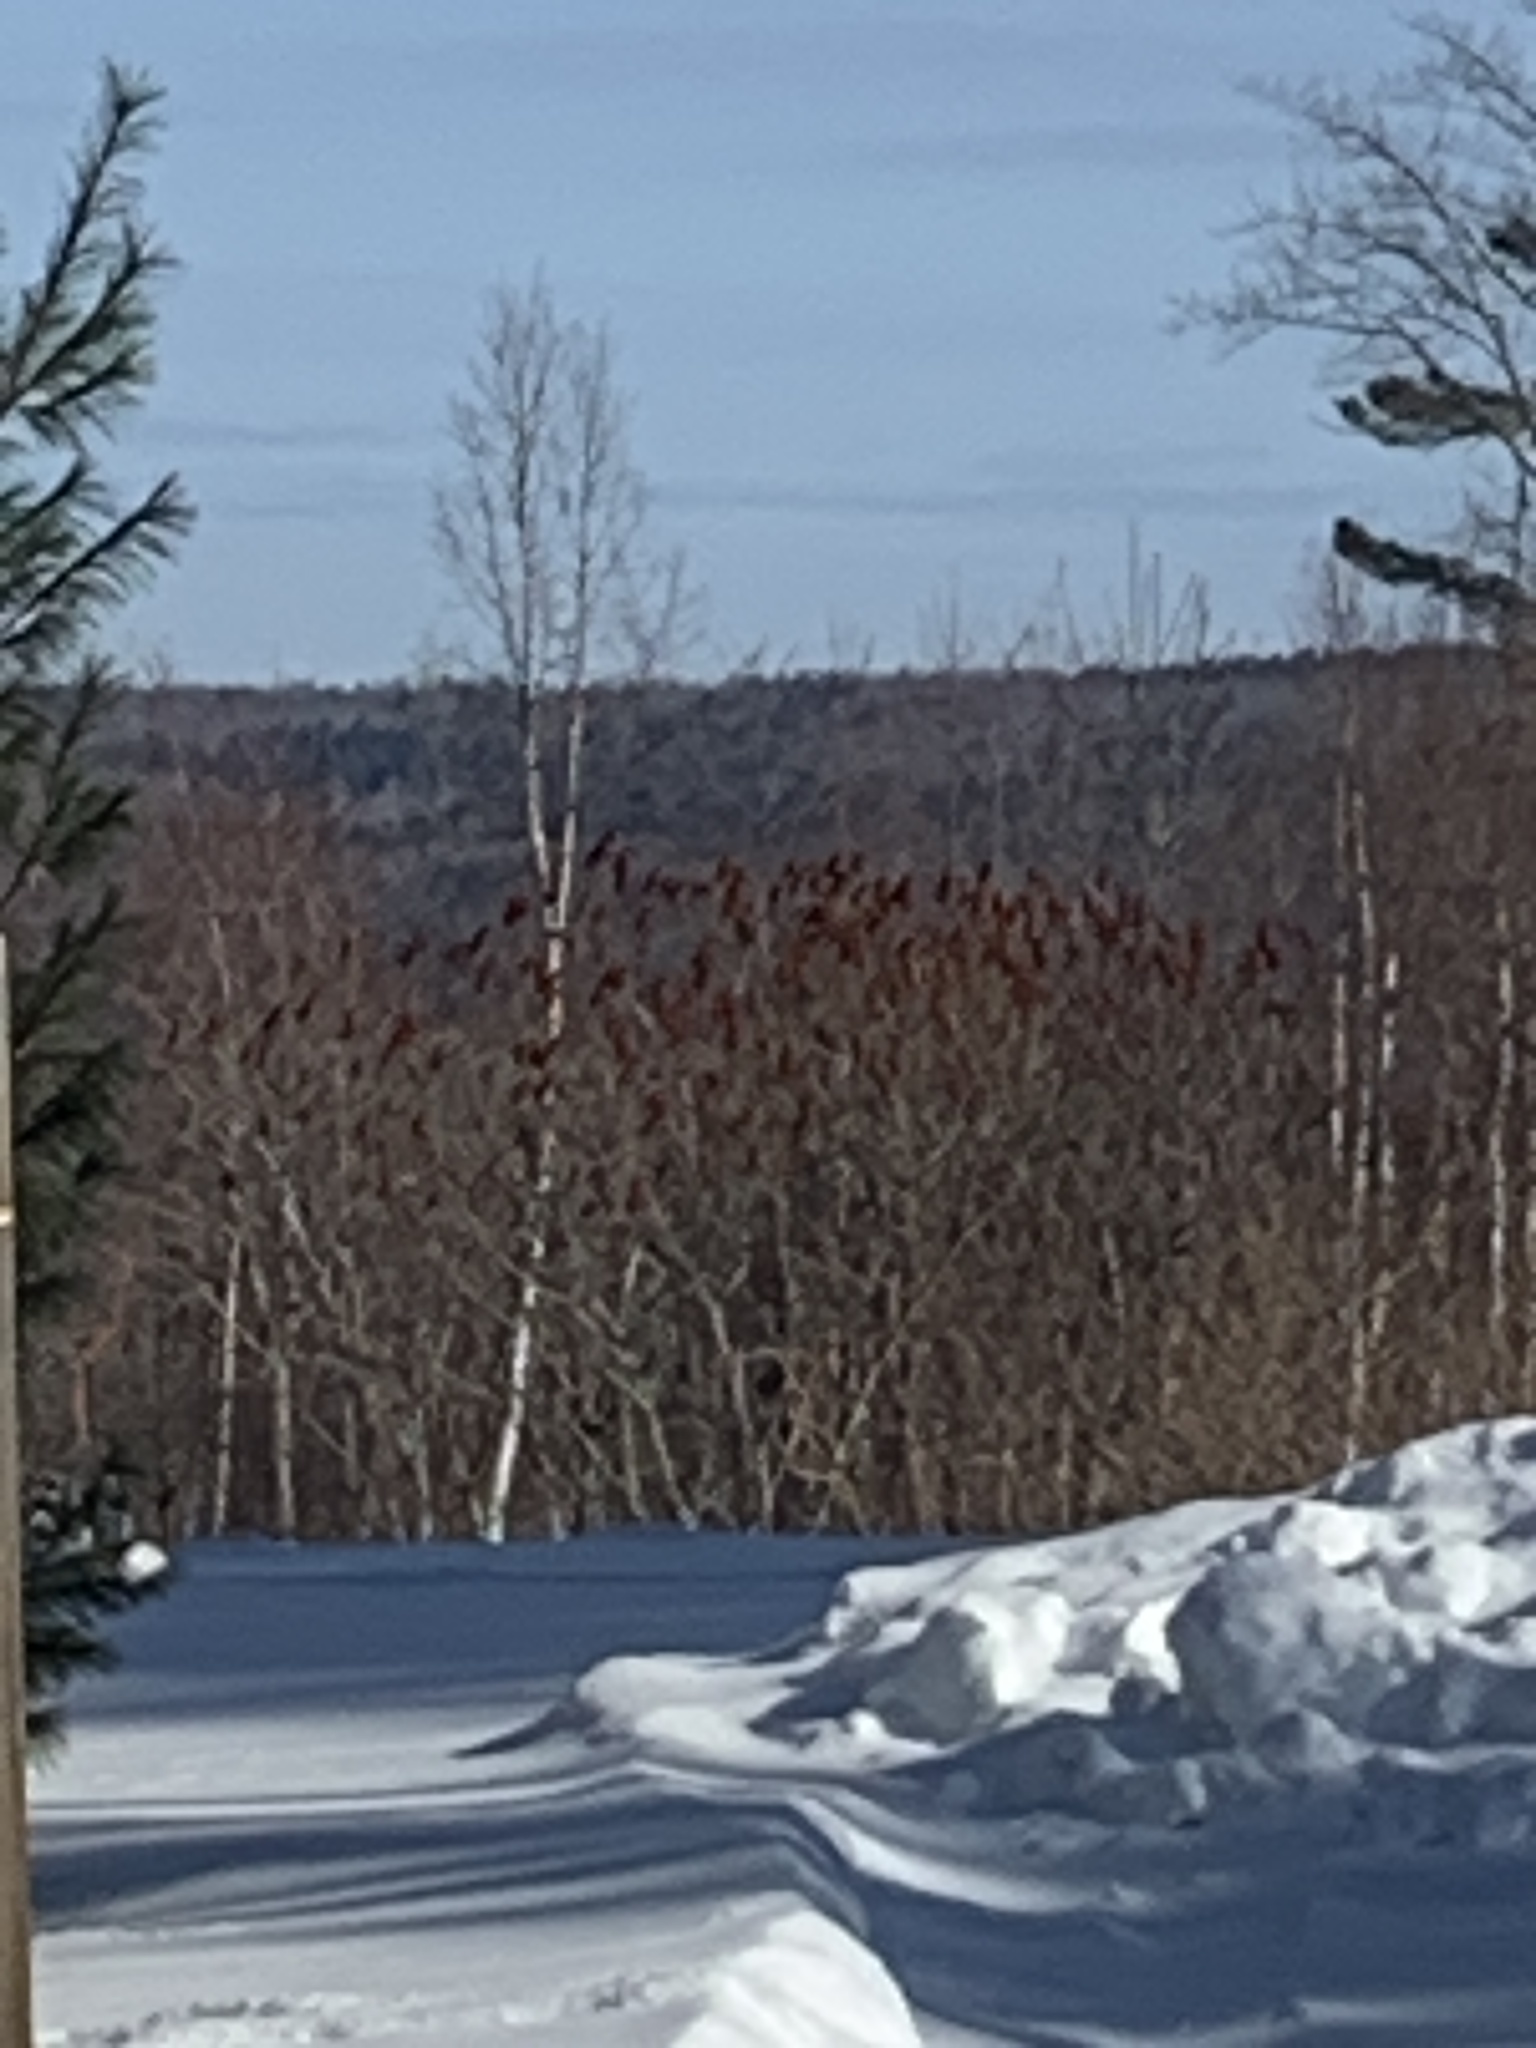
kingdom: Plantae
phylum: Tracheophyta
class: Magnoliopsida
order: Sapindales
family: Anacardiaceae
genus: Rhus
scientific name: Rhus typhina
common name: Staghorn sumac
